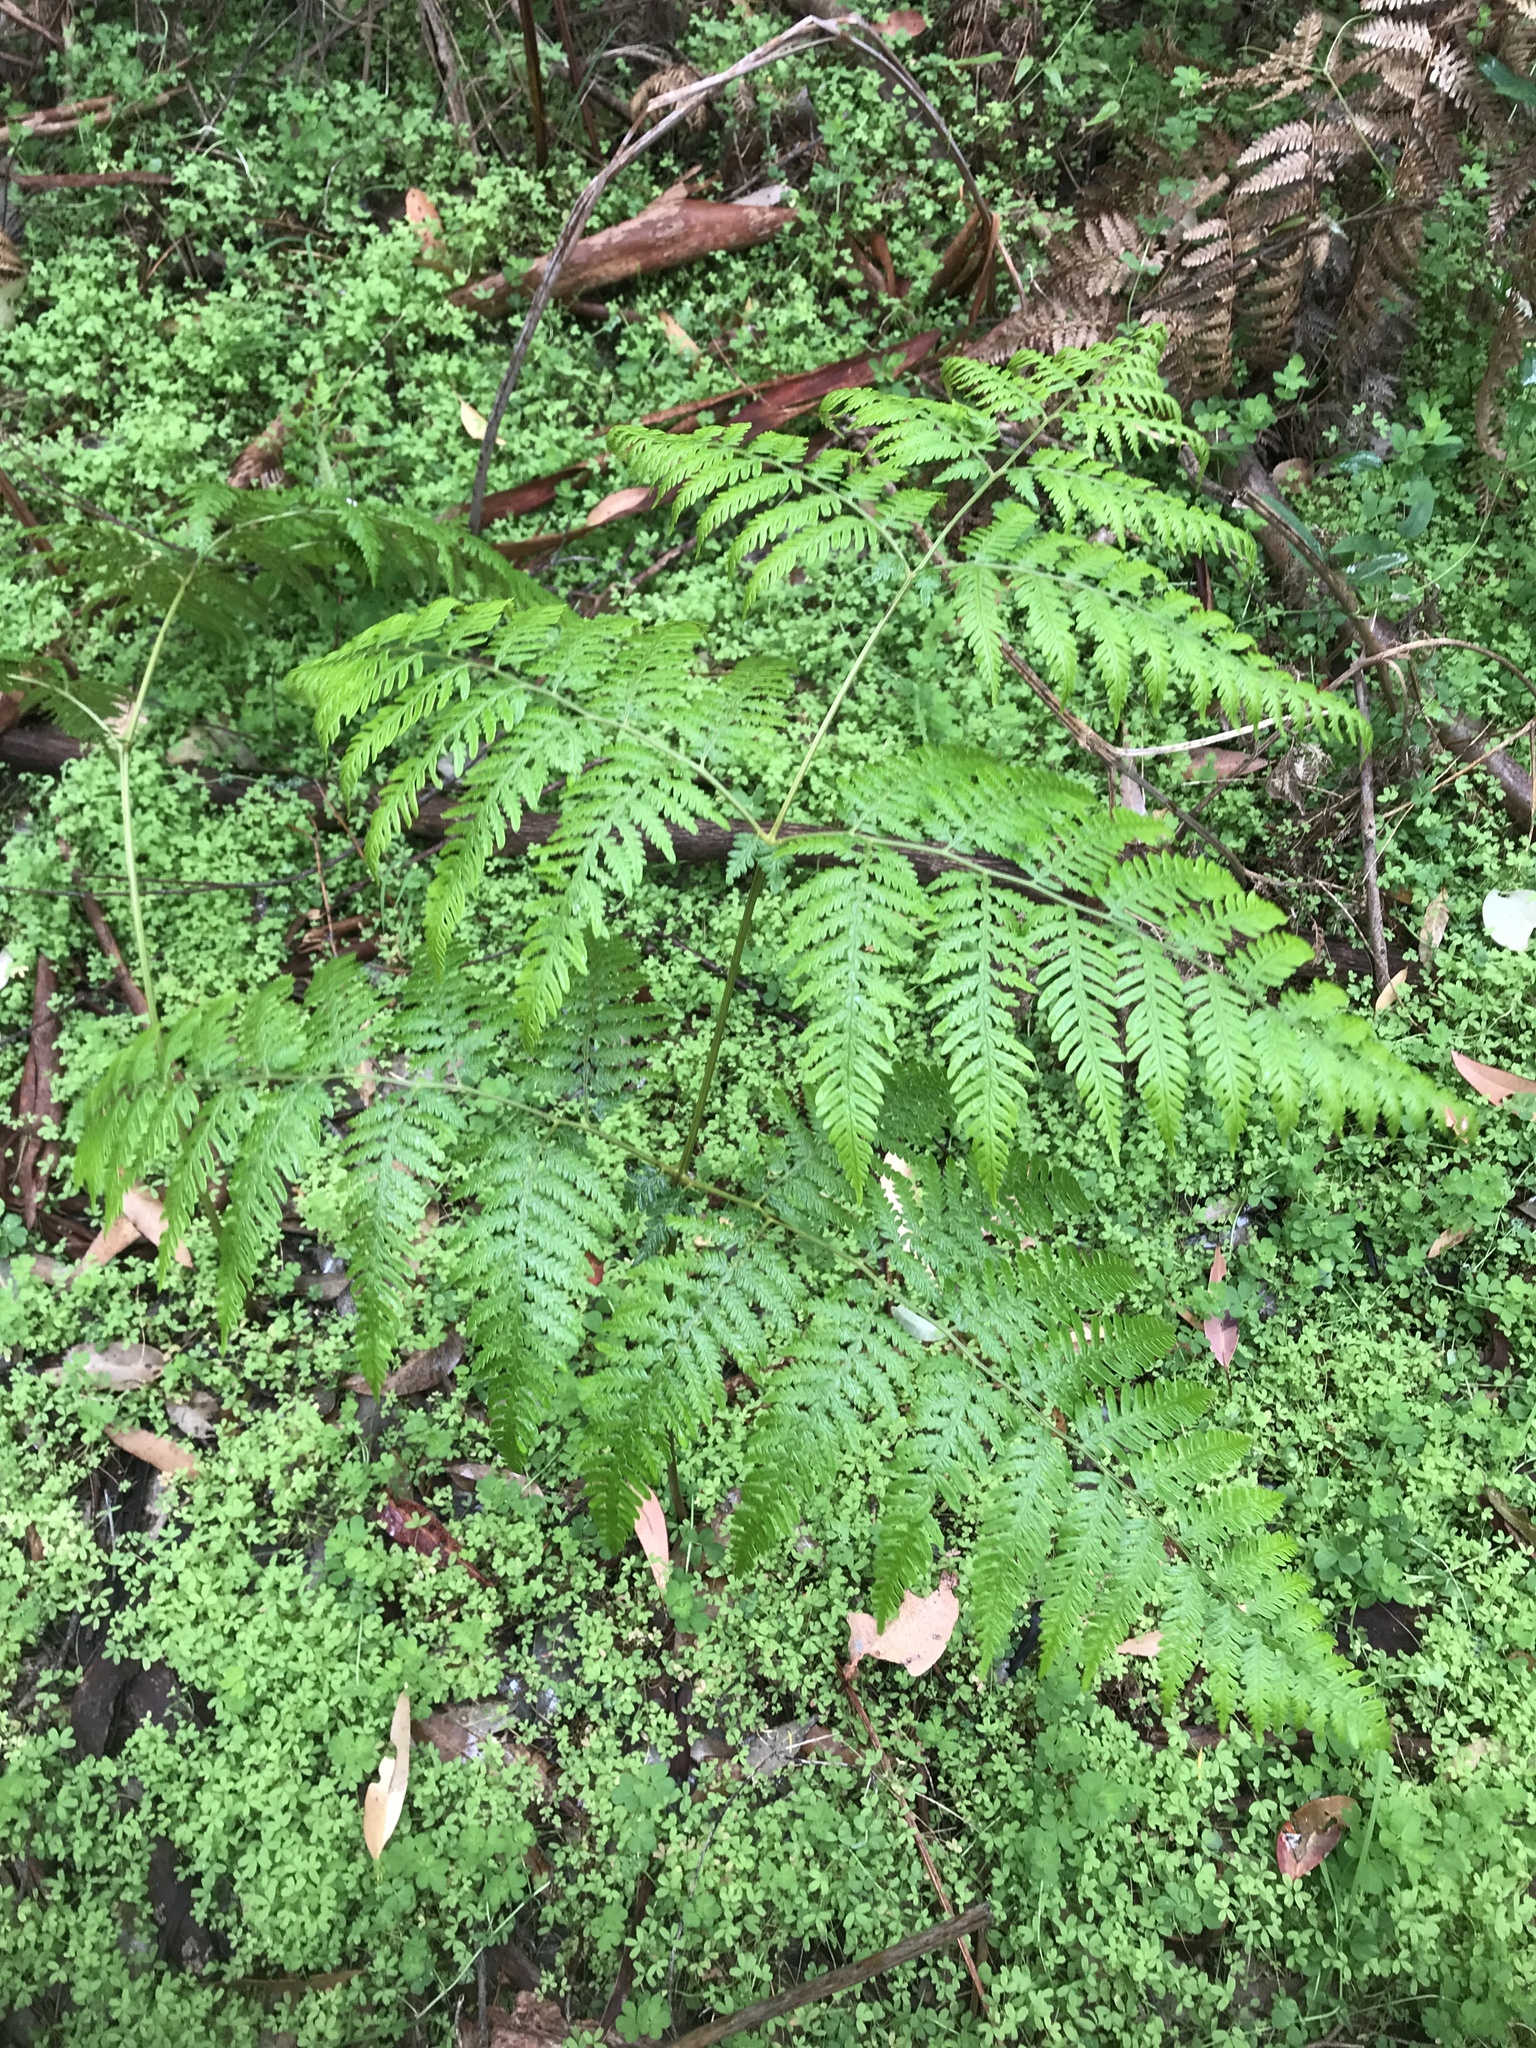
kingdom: Plantae
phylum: Tracheophyta
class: Polypodiopsida
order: Polypodiales
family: Dennstaedtiaceae
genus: Pteridium
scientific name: Pteridium esculentum
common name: Bracken fern
